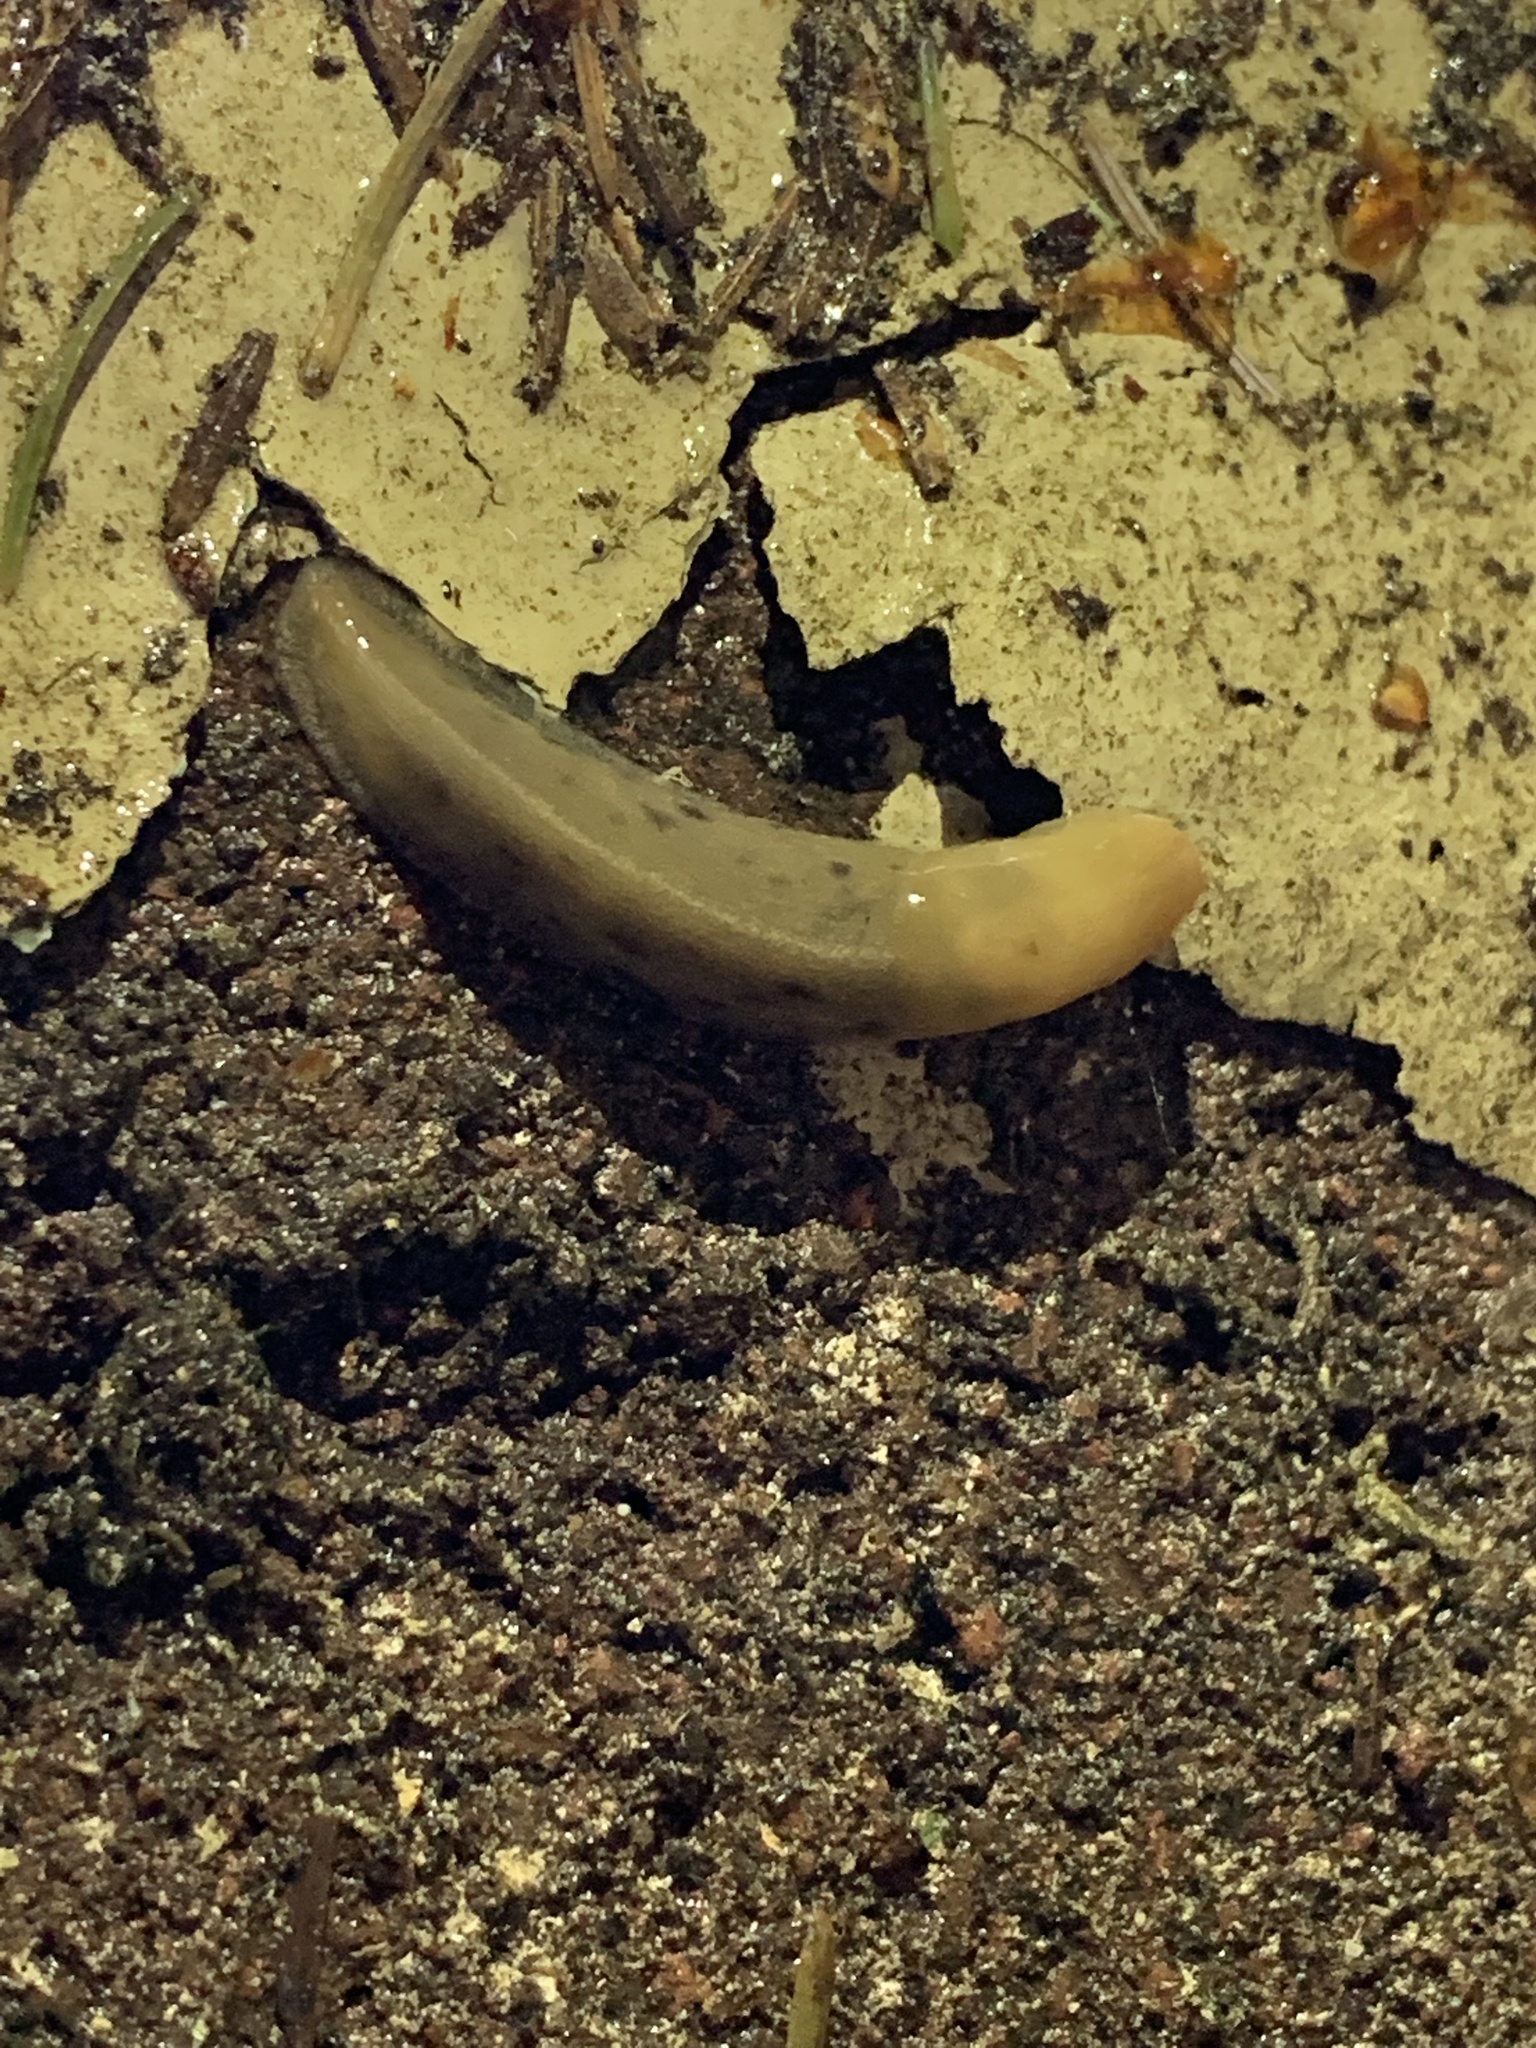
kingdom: Animalia
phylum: Mollusca
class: Gastropoda
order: Stylommatophora
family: Ariolimacidae
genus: Ariolimax
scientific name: Ariolimax columbianus
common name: Pacific banana slug
